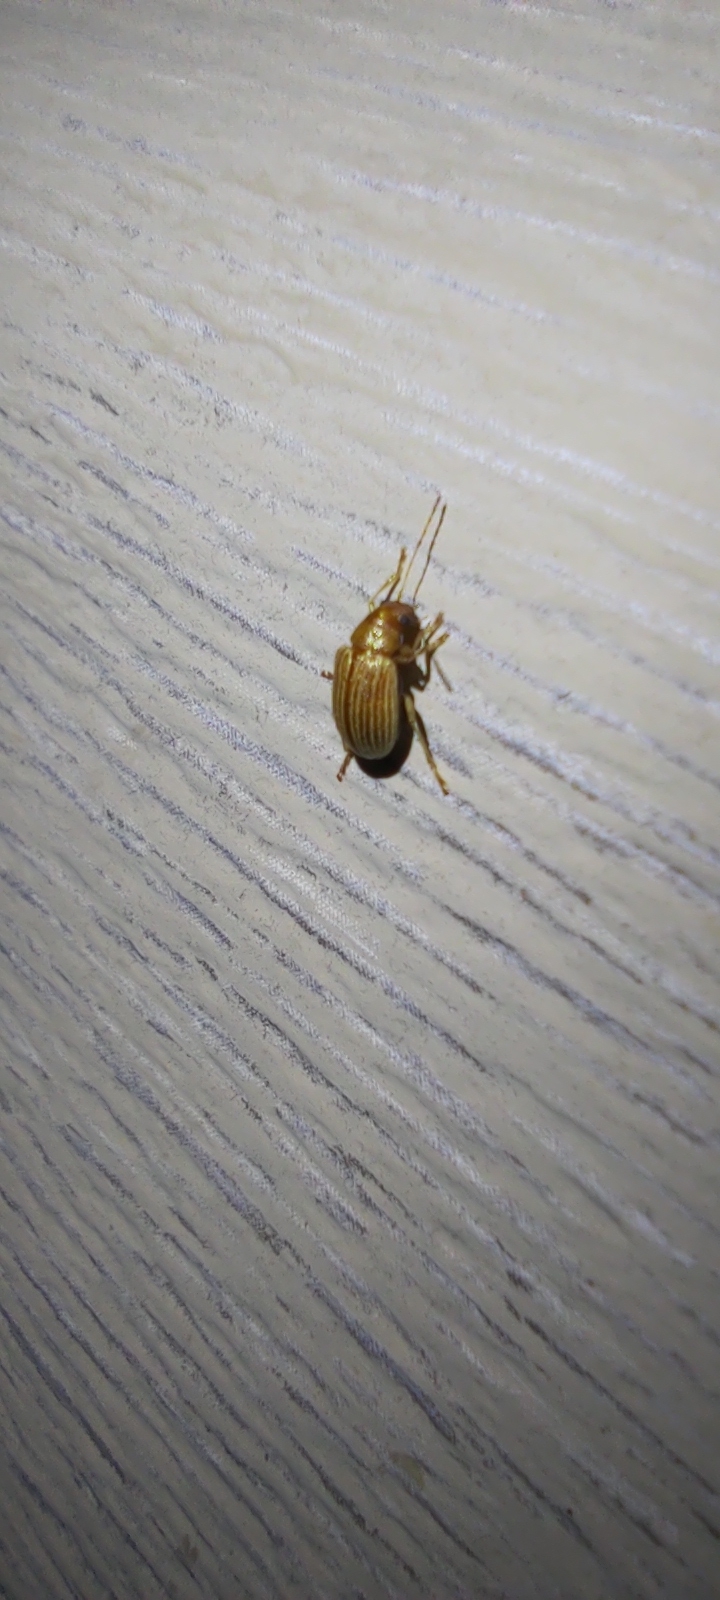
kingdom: Animalia
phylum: Arthropoda
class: Insecta
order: Coleoptera
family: Chrysomelidae
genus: Colaspis
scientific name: Colaspis brunnea
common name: Grape colaspis
